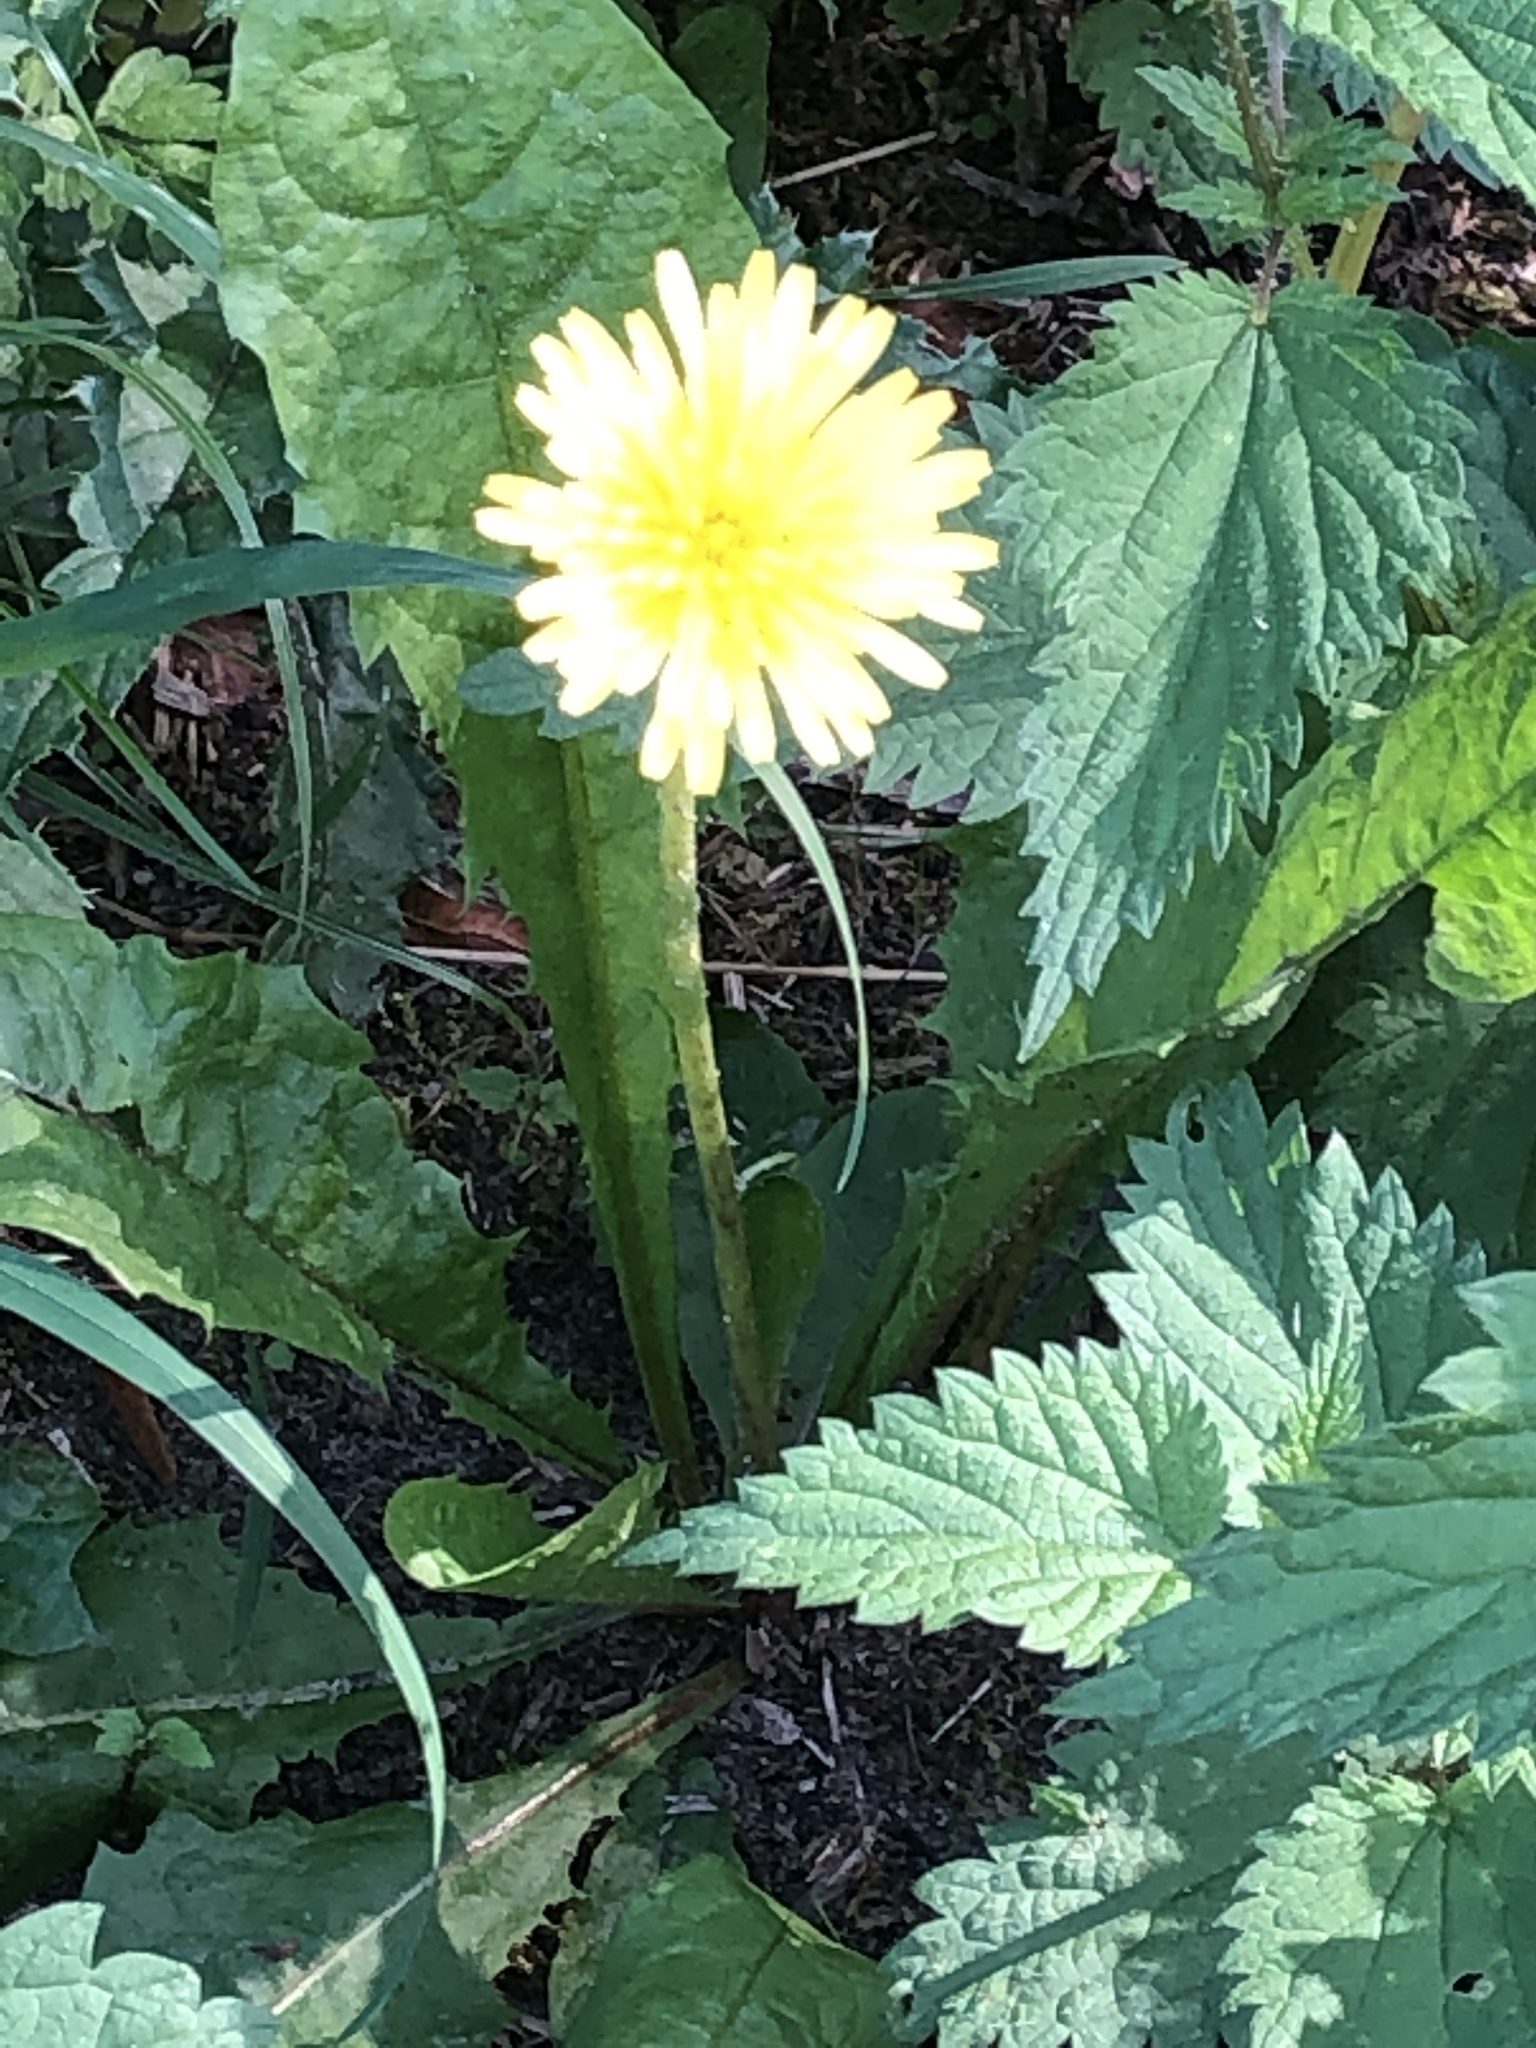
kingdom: Plantae
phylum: Tracheophyta
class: Magnoliopsida
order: Asterales
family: Asteraceae
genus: Taraxacum
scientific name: Taraxacum officinale
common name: Common dandelion
